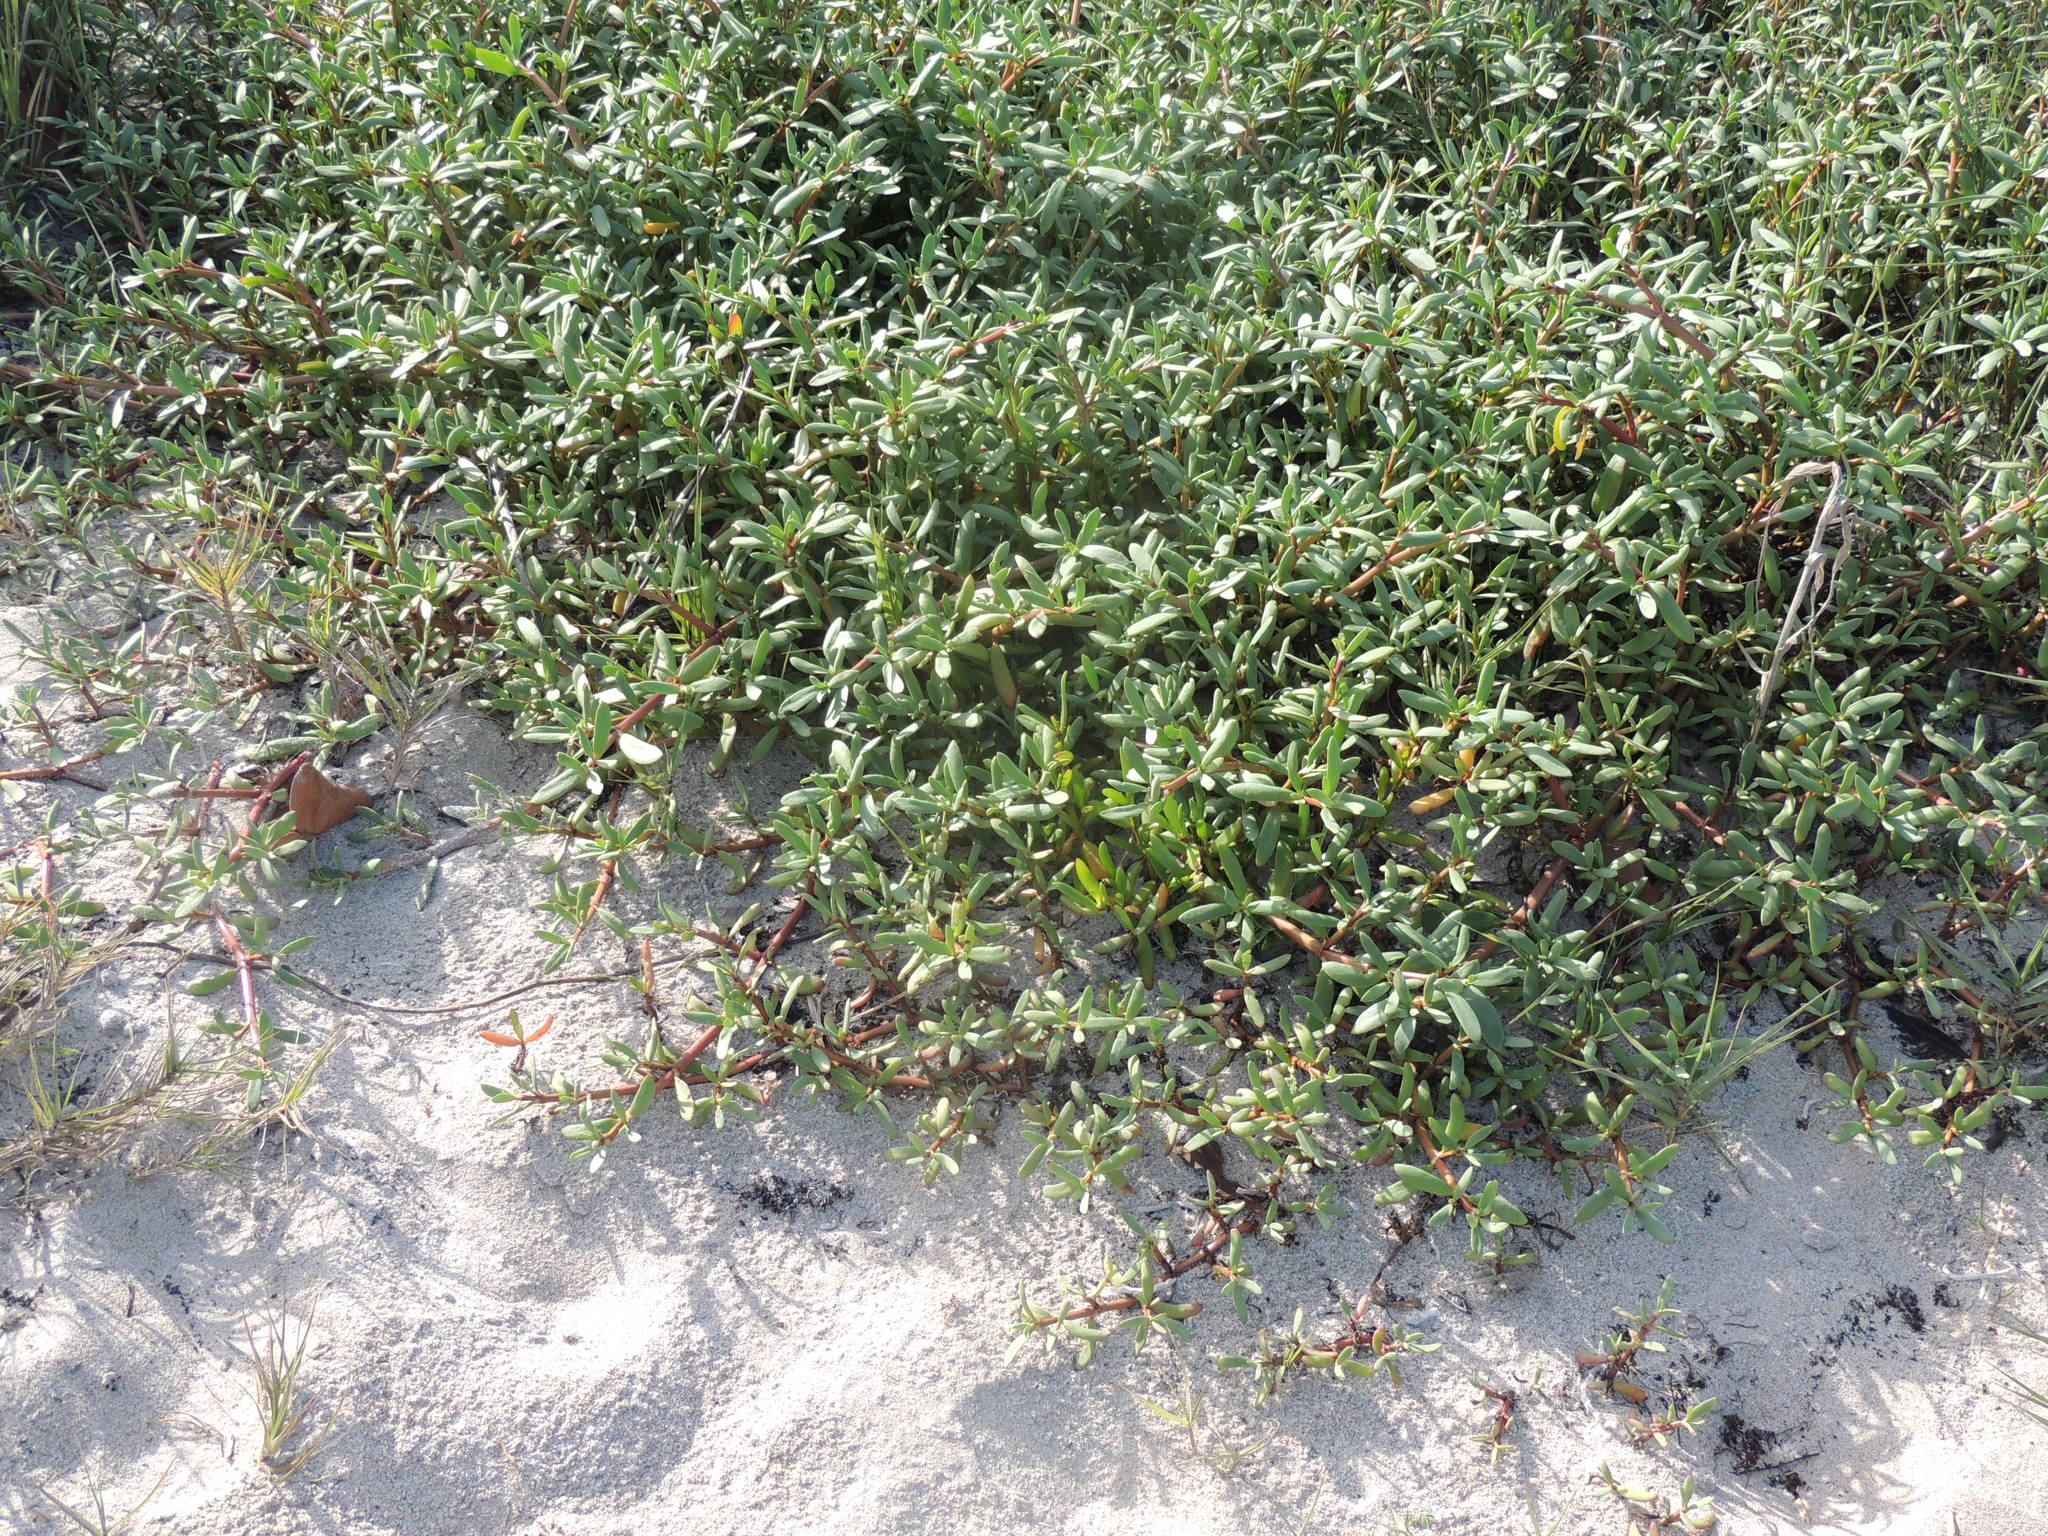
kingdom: Plantae
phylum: Tracheophyta
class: Magnoliopsida
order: Caryophyllales
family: Aizoaceae
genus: Sesuvium
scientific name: Sesuvium portulacastrum
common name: Sea-purslane
